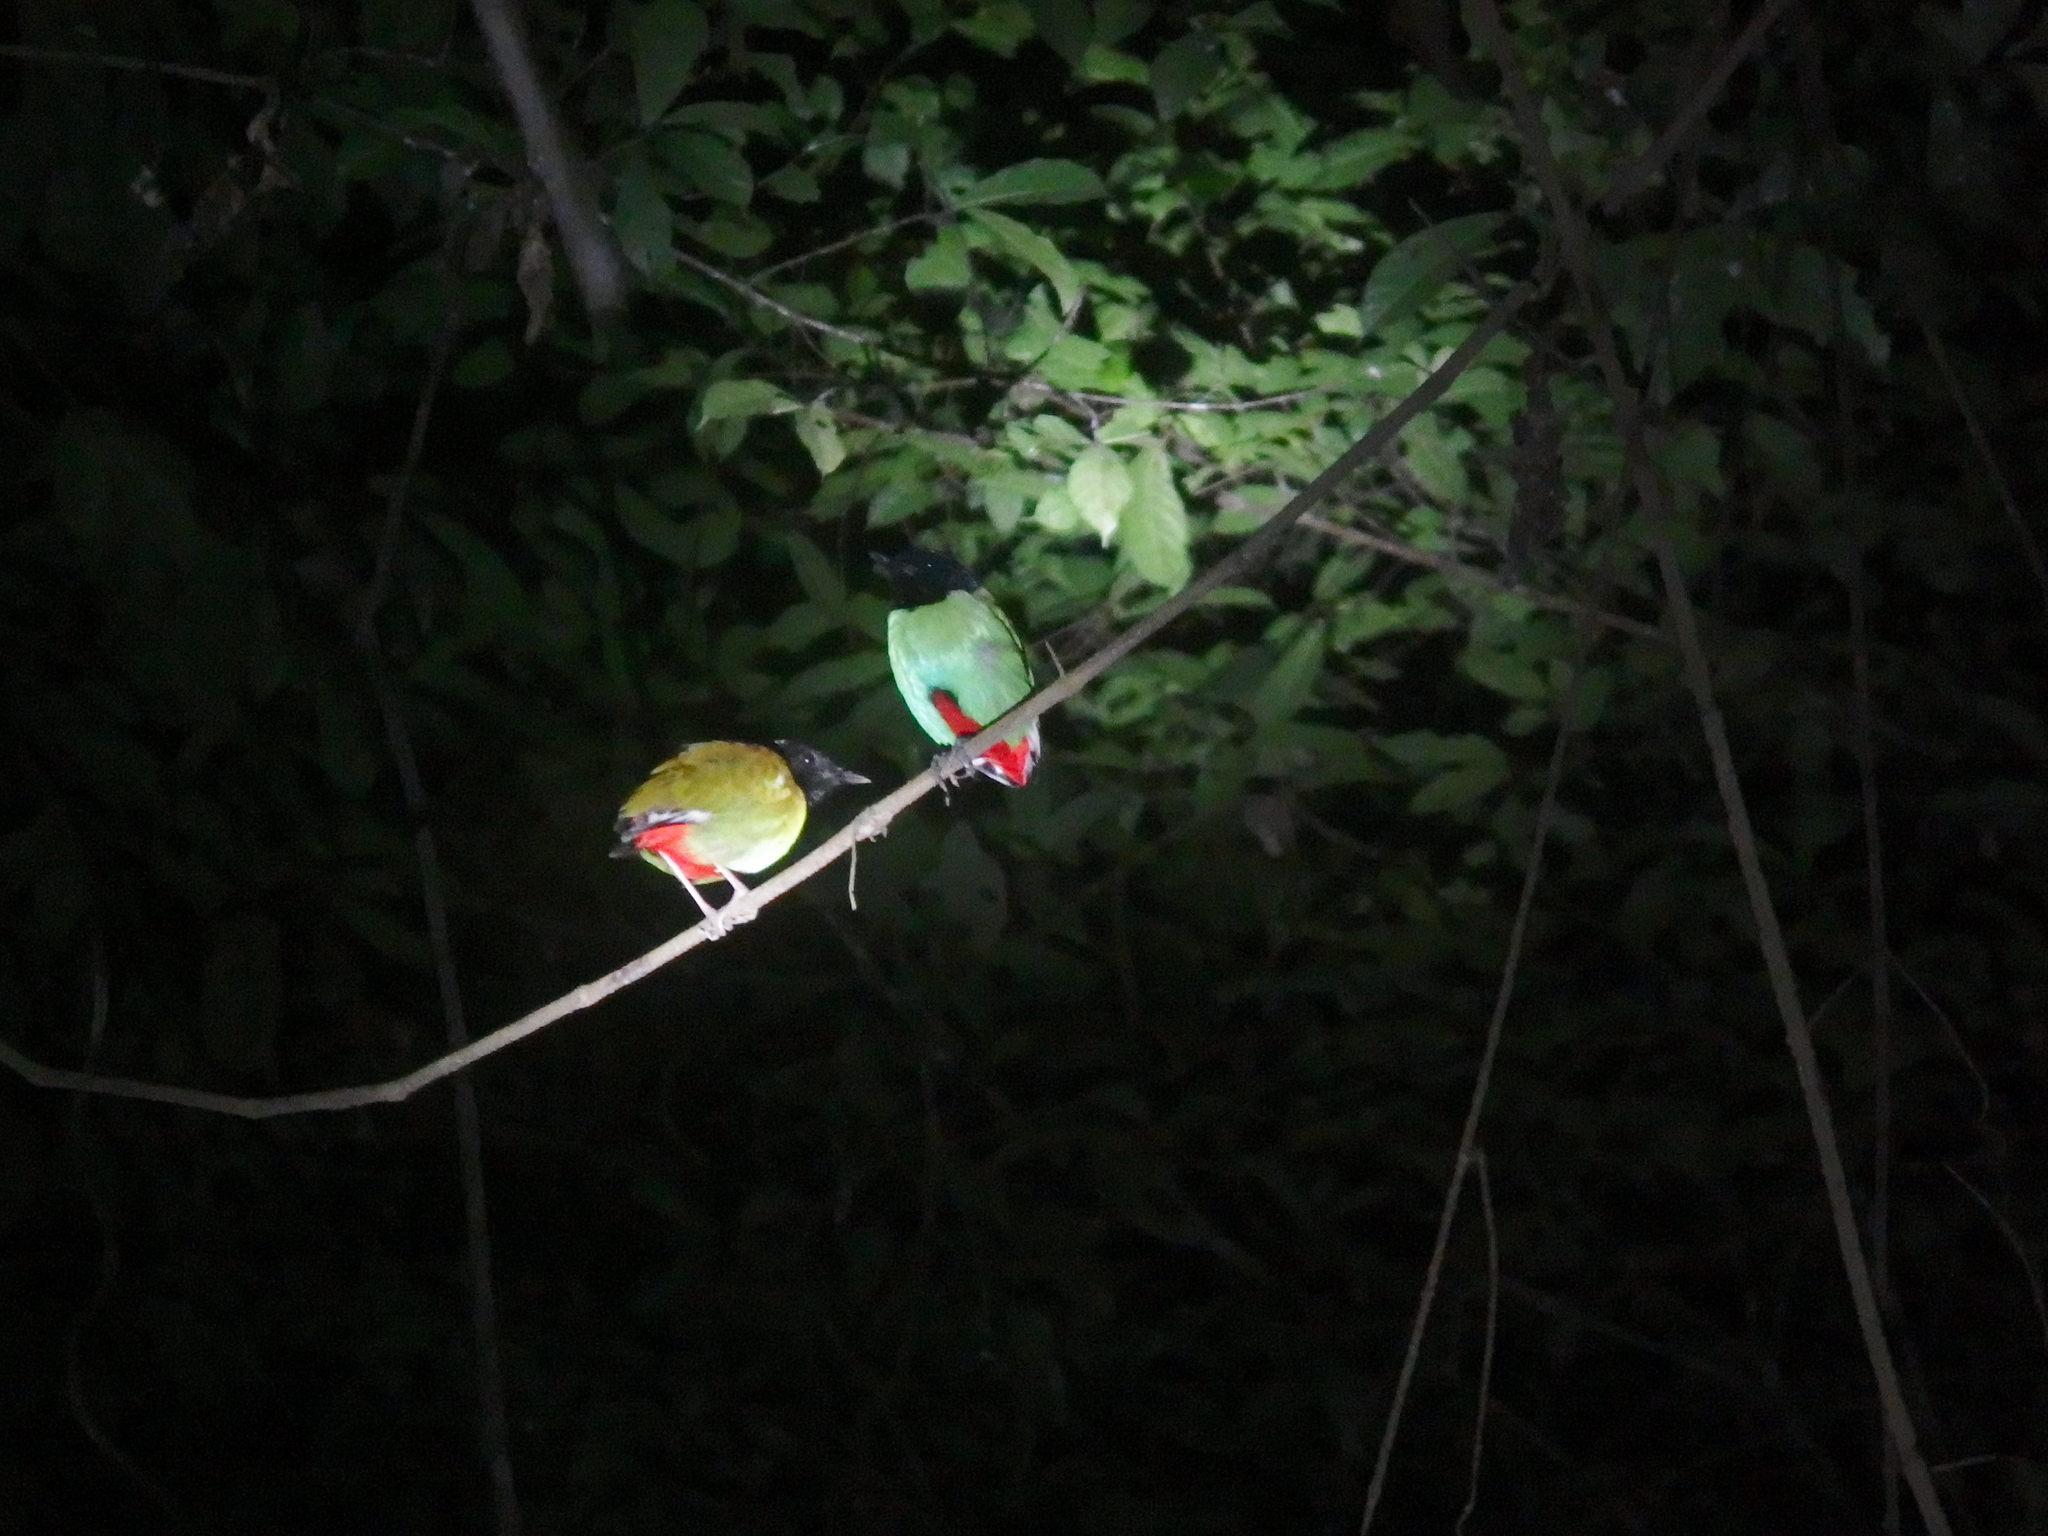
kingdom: Animalia
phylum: Chordata
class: Aves
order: Passeriformes
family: Pittidae
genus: Pitta
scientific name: Pitta sordida
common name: Hooded pitta
